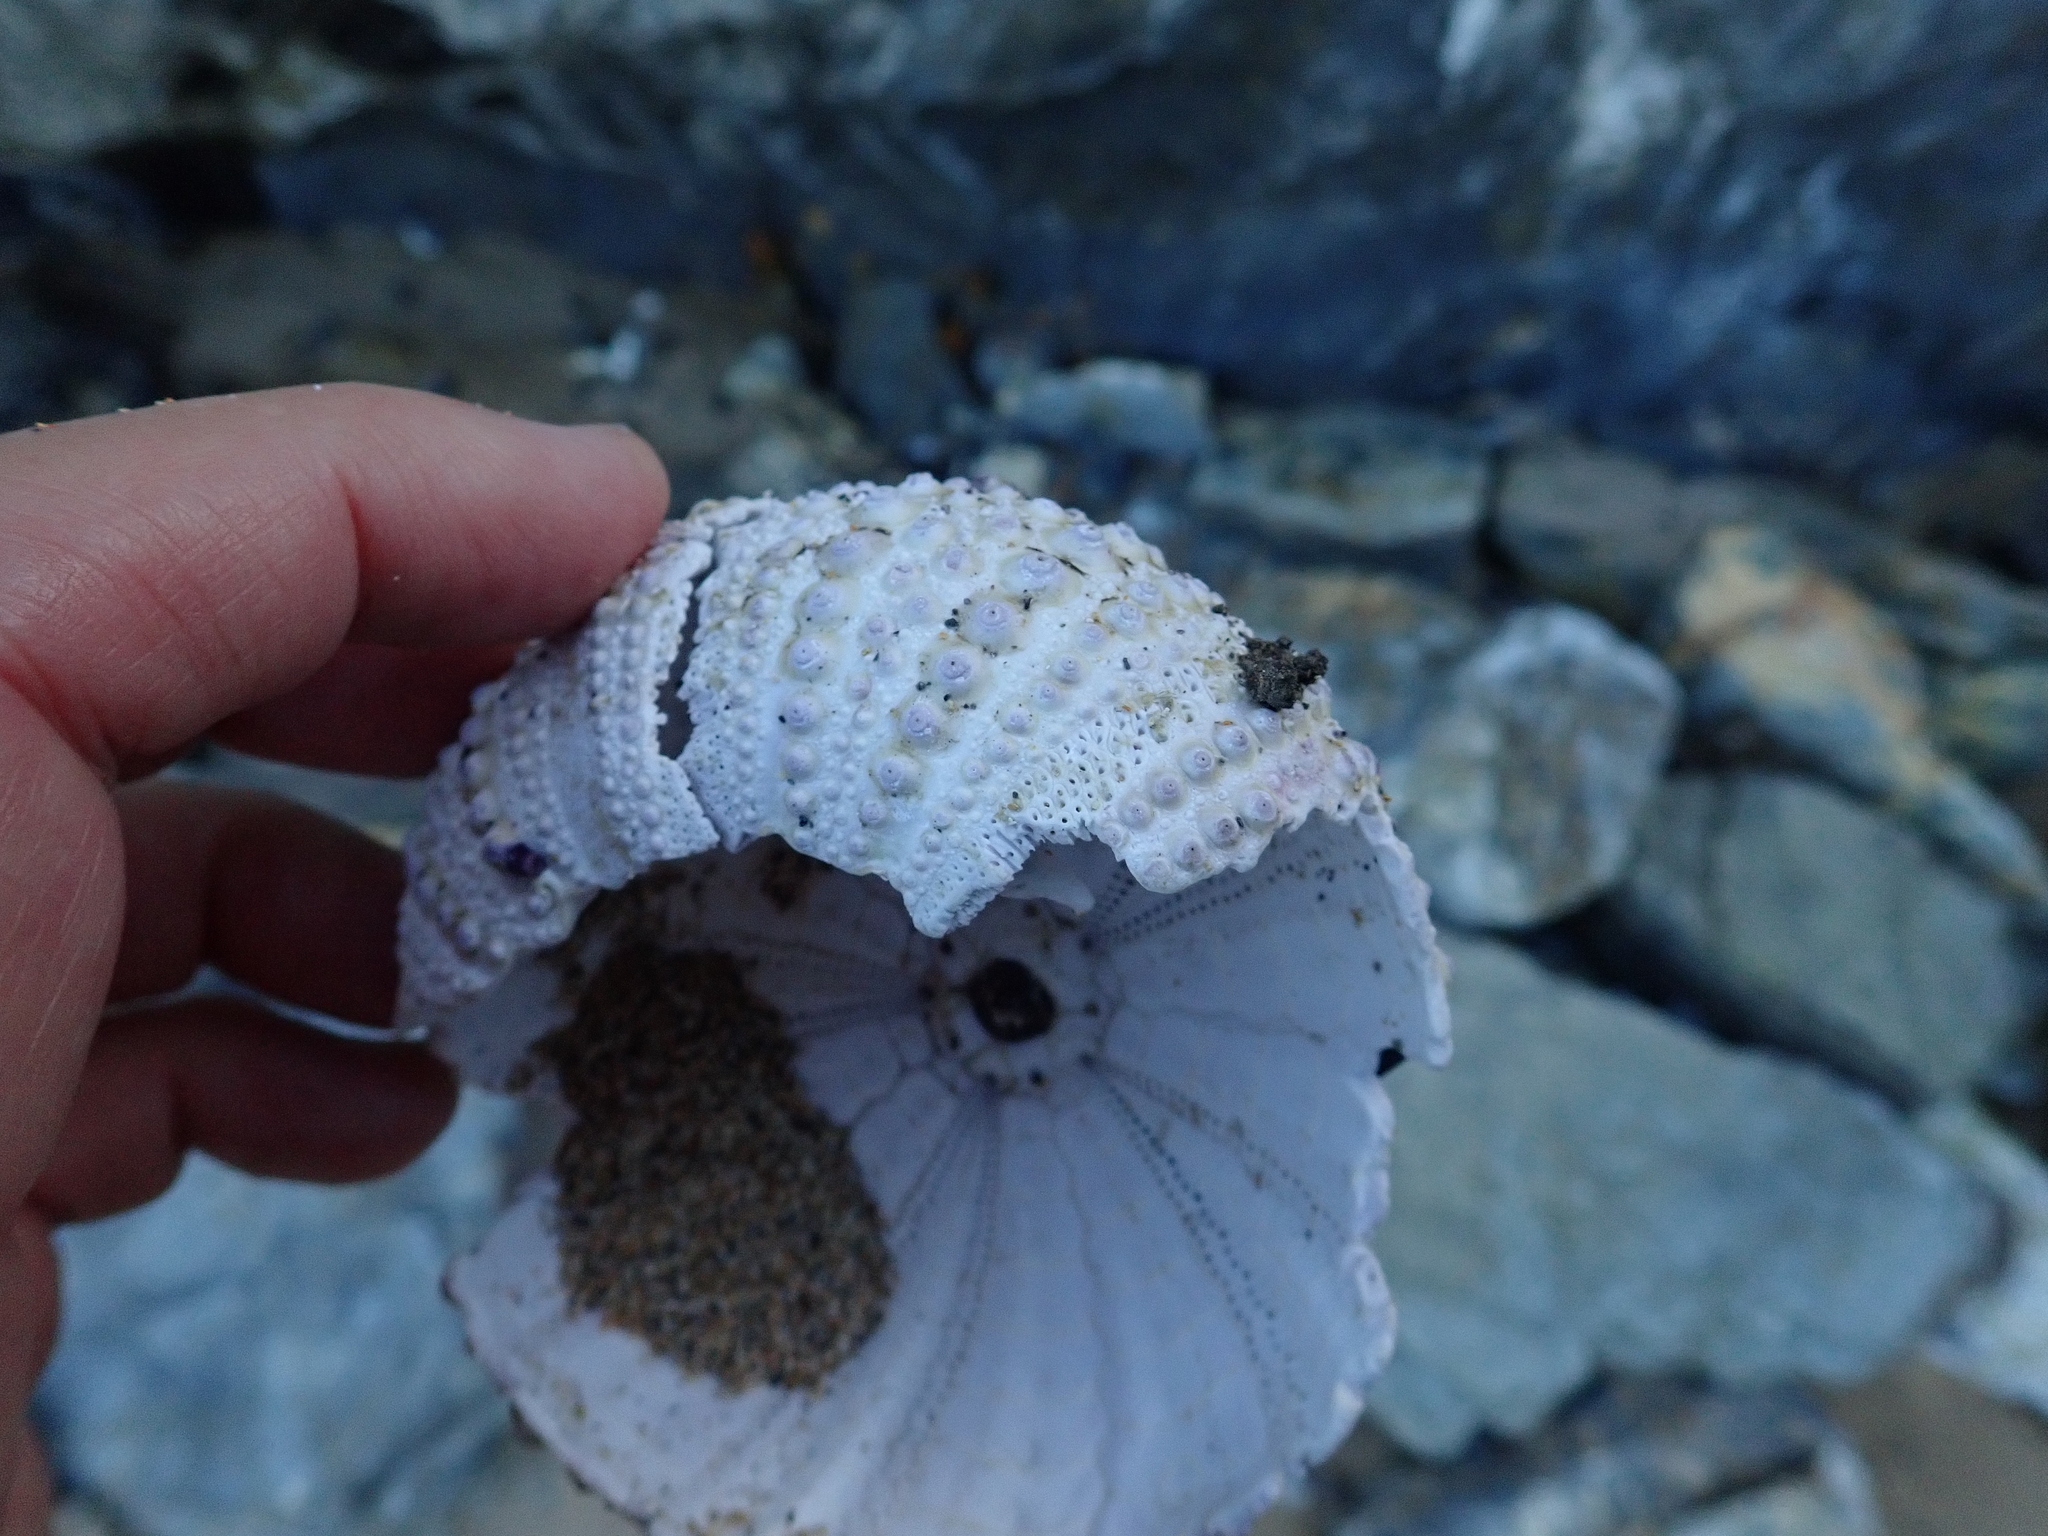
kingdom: Animalia
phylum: Echinodermata
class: Echinoidea
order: Diadematoida
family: Diadematidae
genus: Centrostephanus
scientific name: Centrostephanus rodgersii
